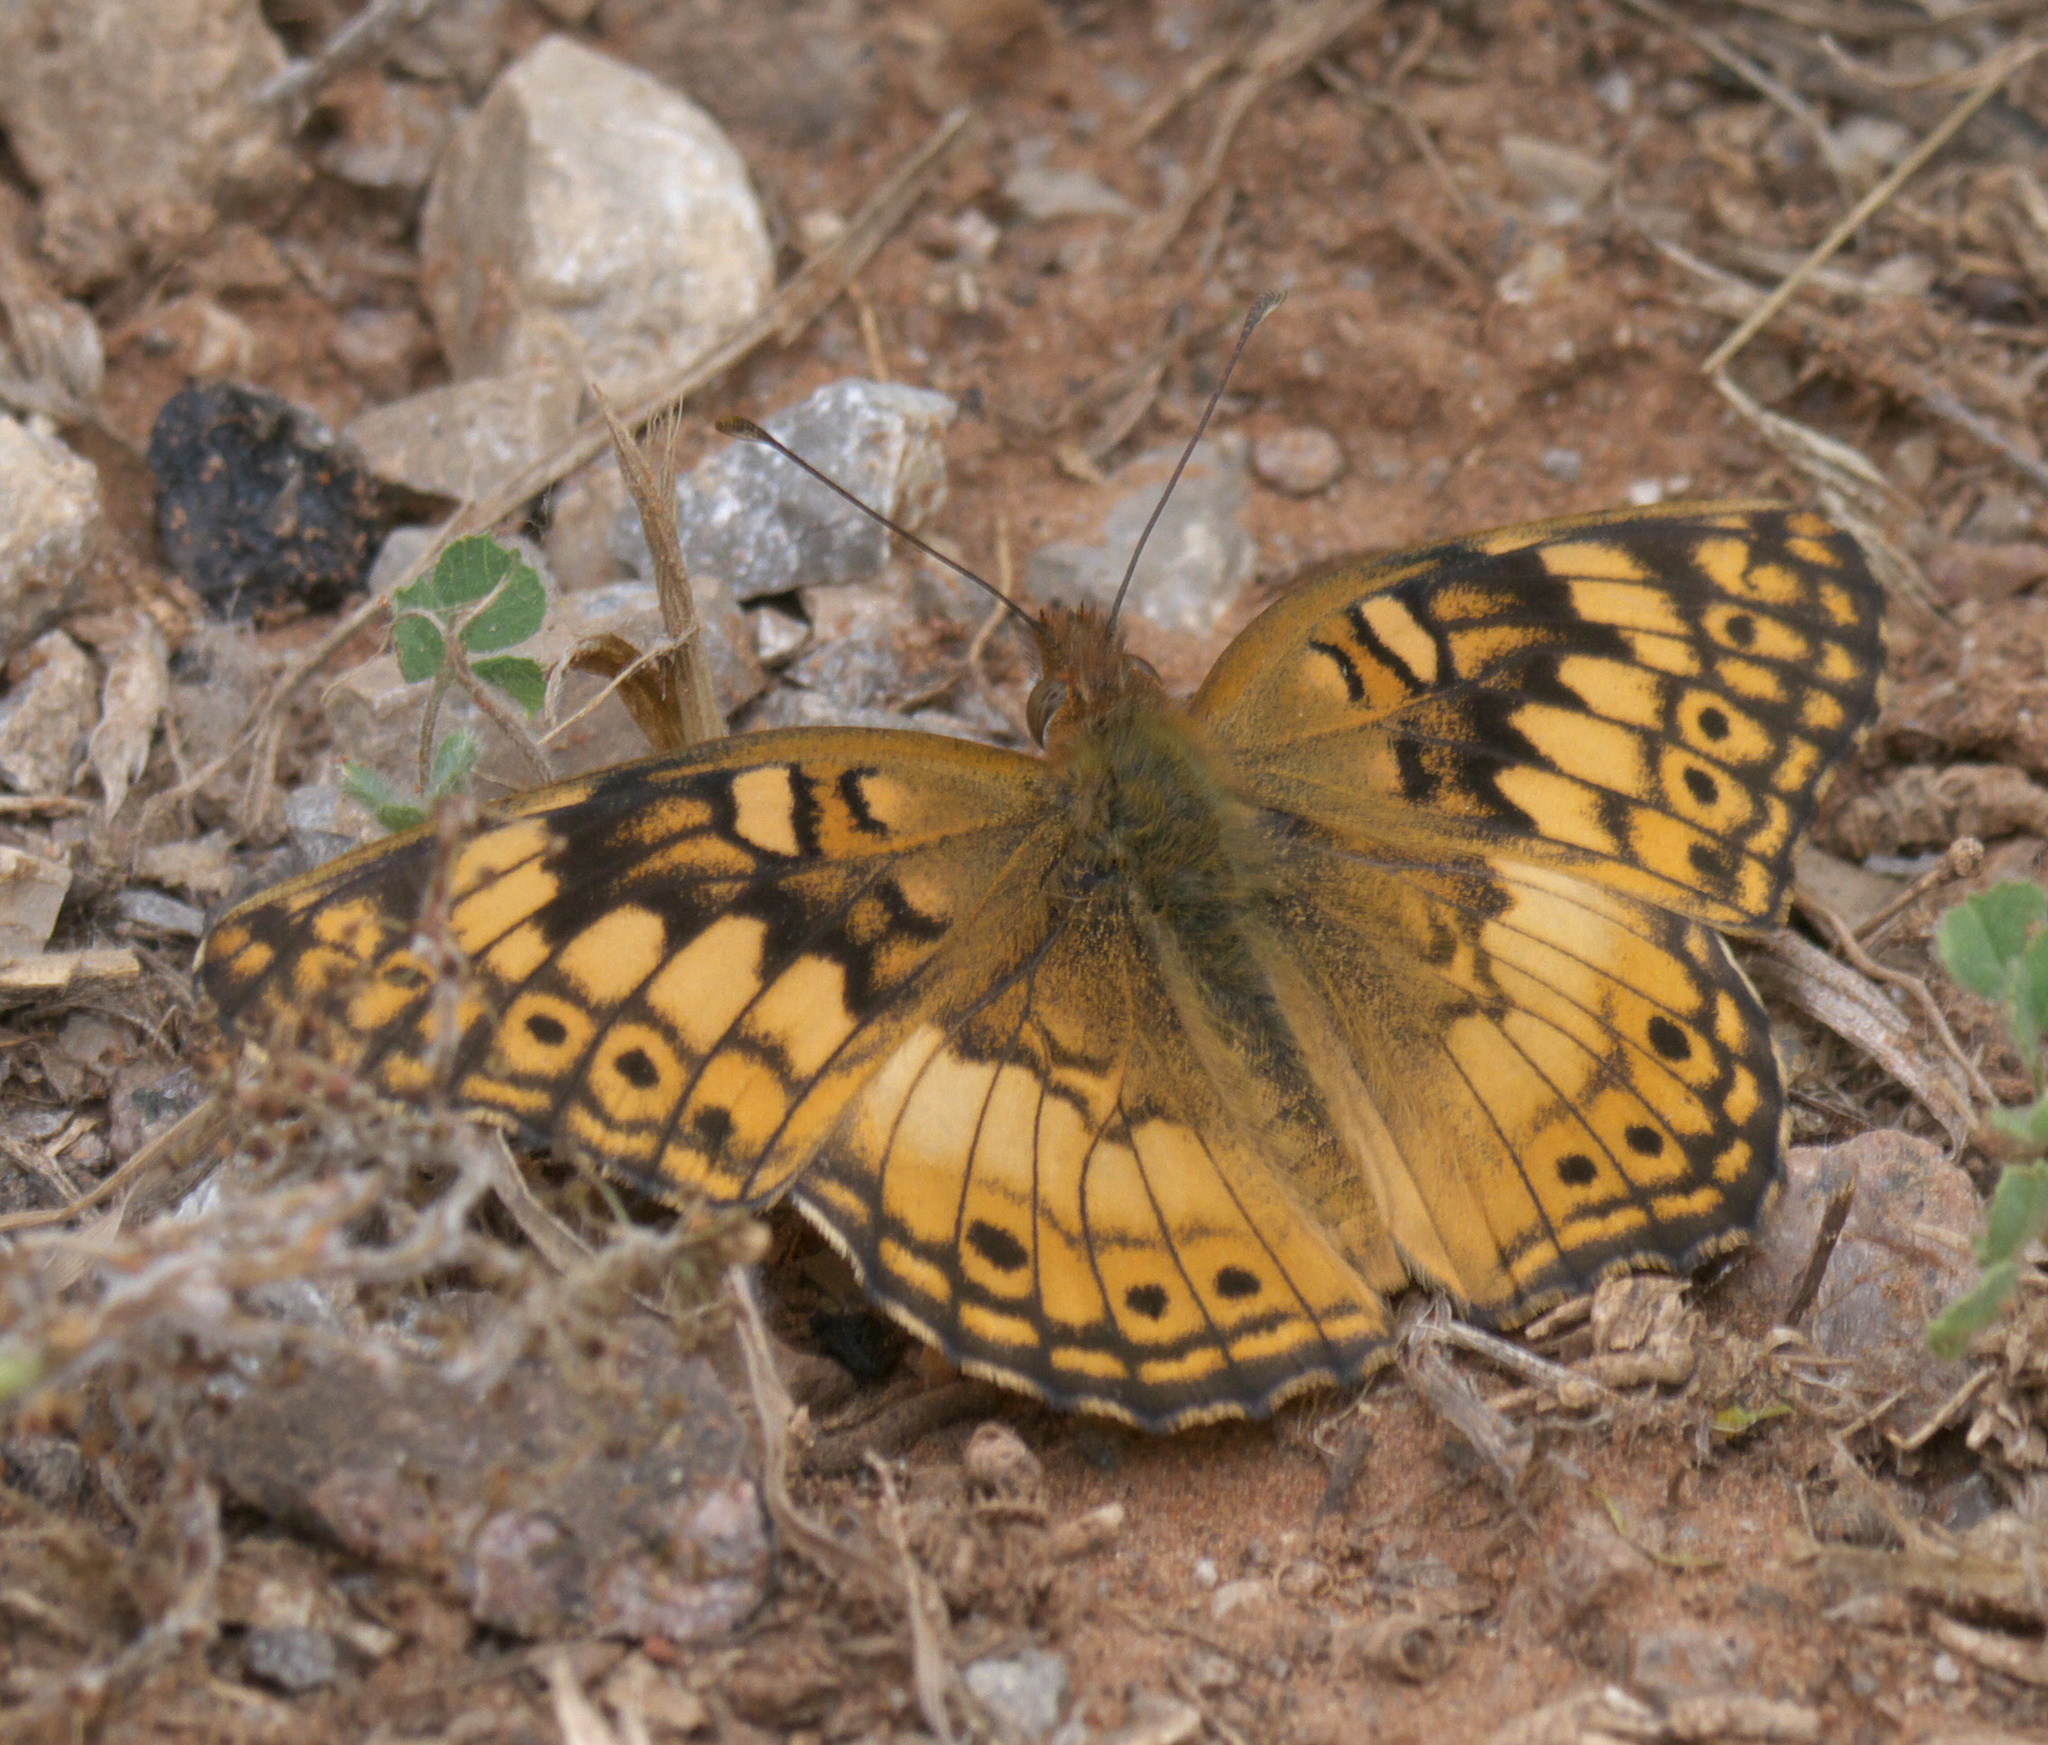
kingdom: Animalia
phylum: Arthropoda
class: Insecta
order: Lepidoptera
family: Nymphalidae
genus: Euptoieta
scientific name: Euptoieta claudia
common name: Variegated fritillary
